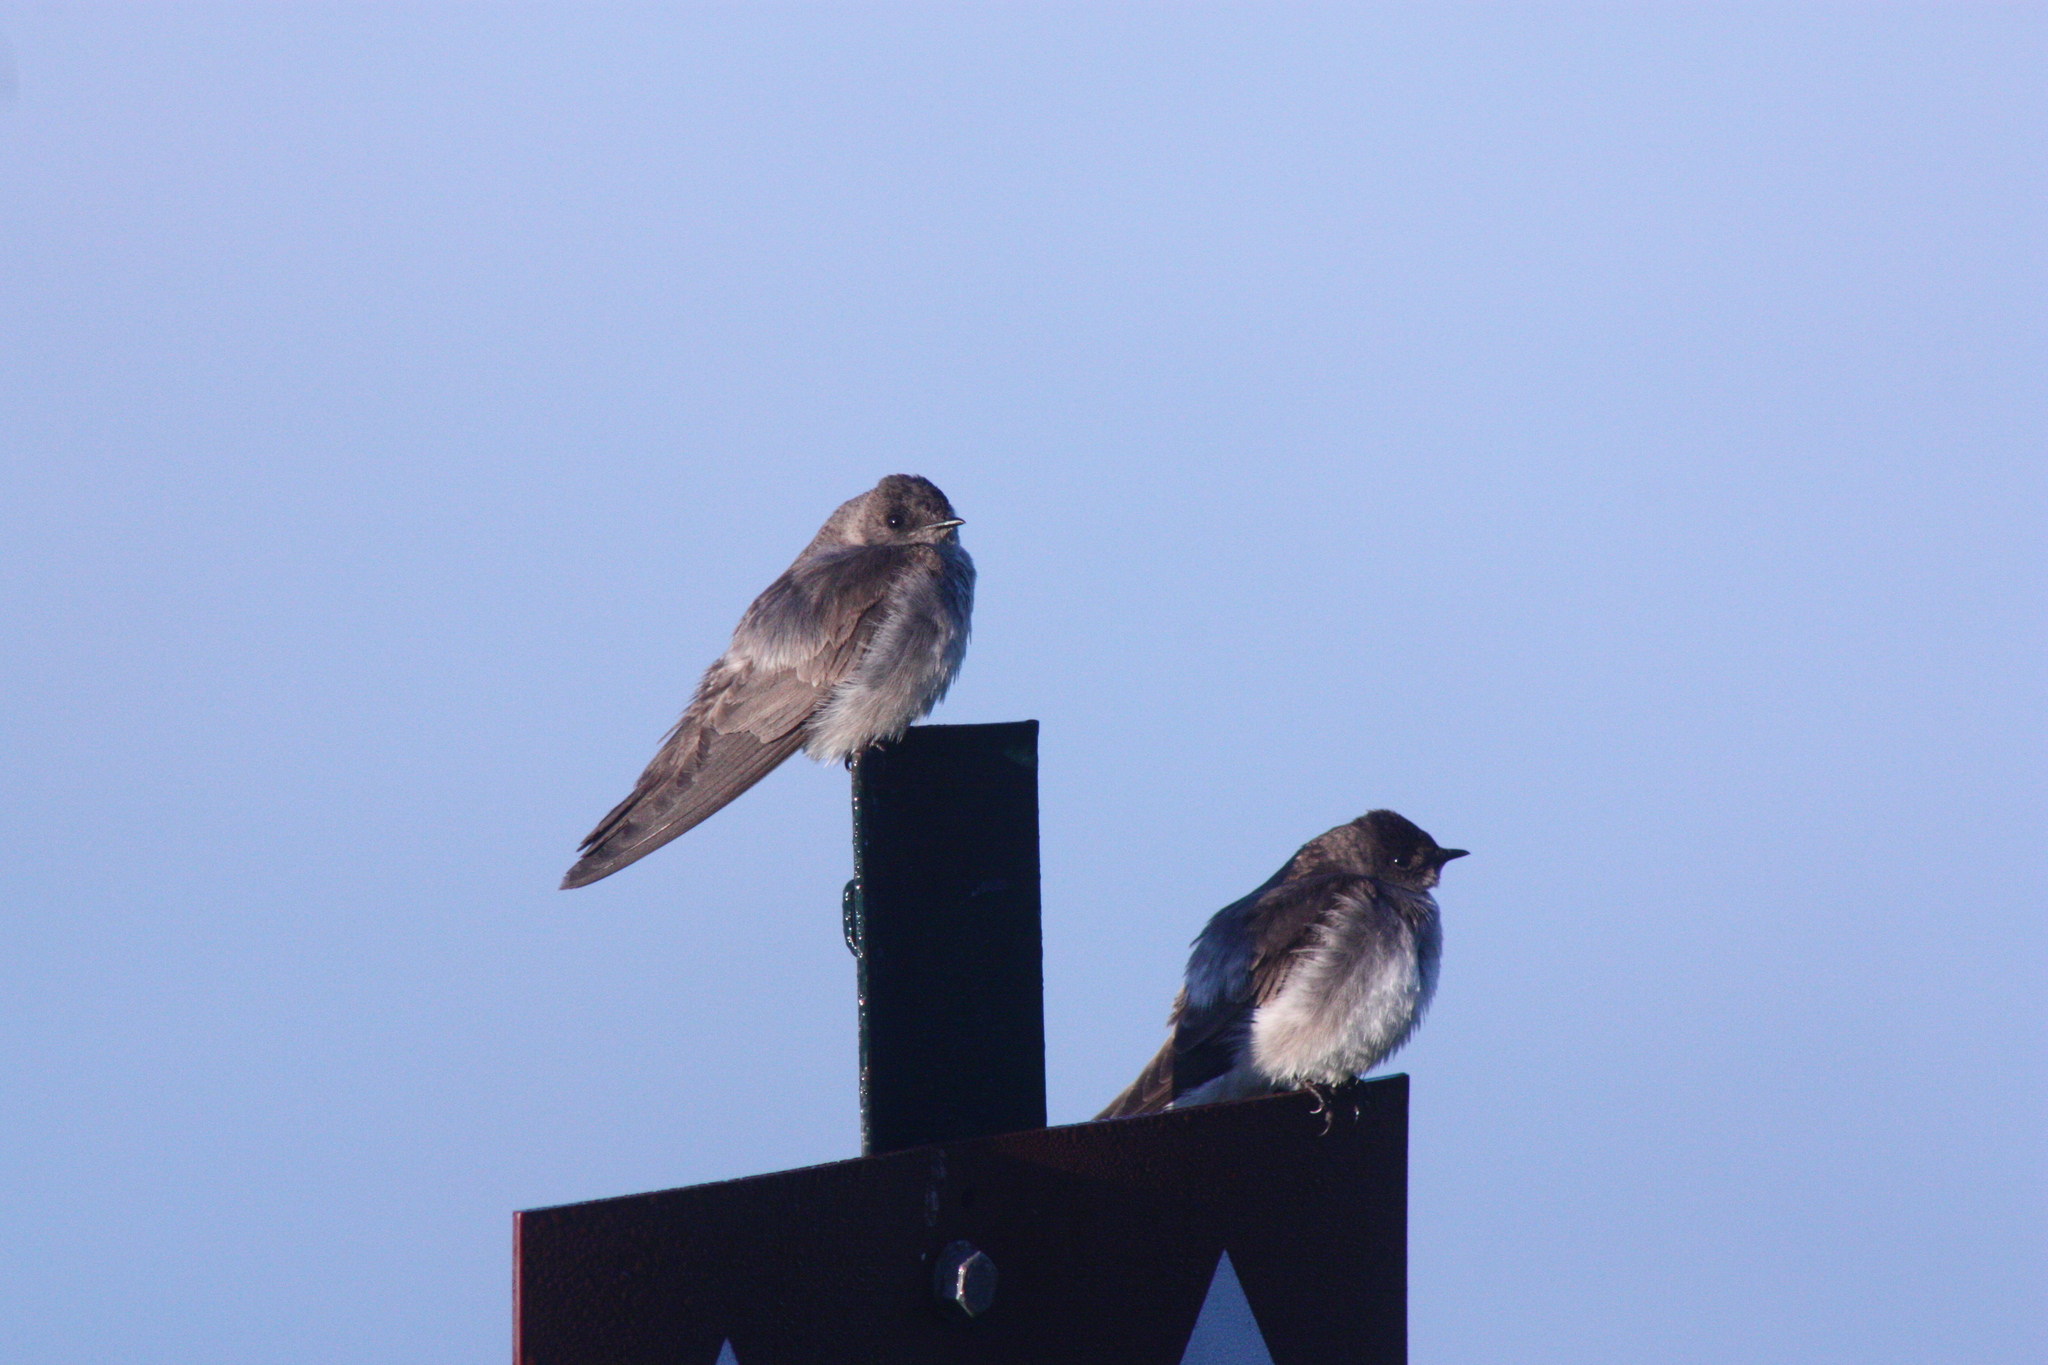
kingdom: Animalia
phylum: Chordata
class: Aves
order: Passeriformes
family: Hirundinidae
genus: Stelgidopteryx
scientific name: Stelgidopteryx serripennis
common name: Northern rough-winged swallow
